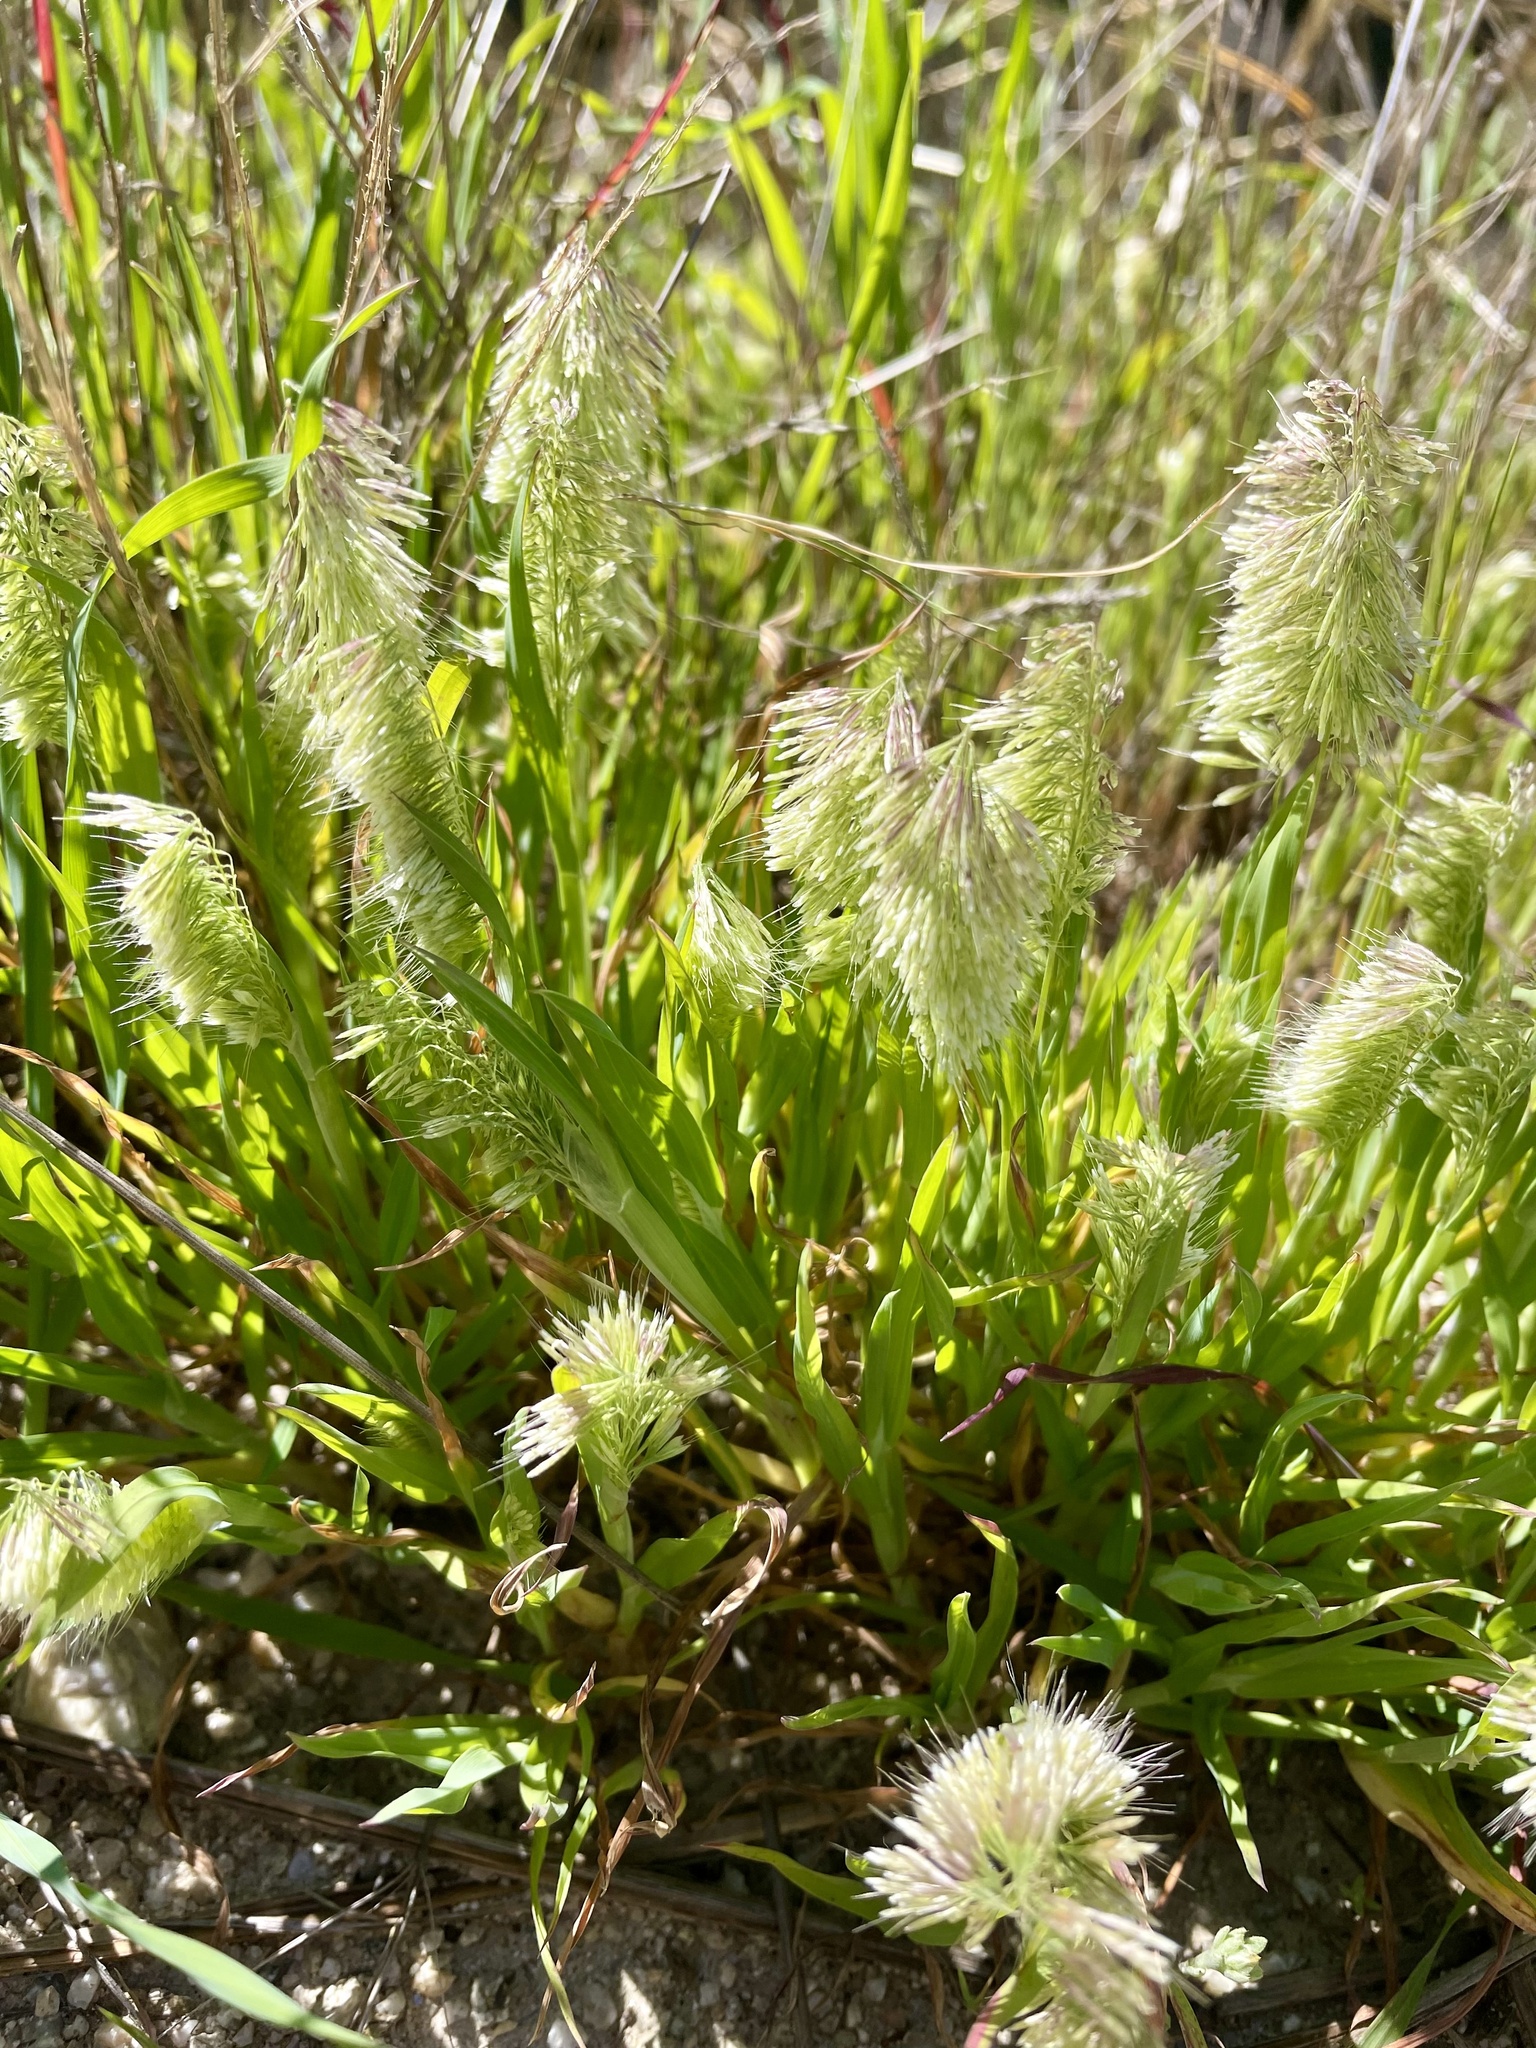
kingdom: Plantae
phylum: Tracheophyta
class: Liliopsida
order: Poales
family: Poaceae
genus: Lamarckia
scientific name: Lamarckia aurea
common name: Golden dog's-tail
